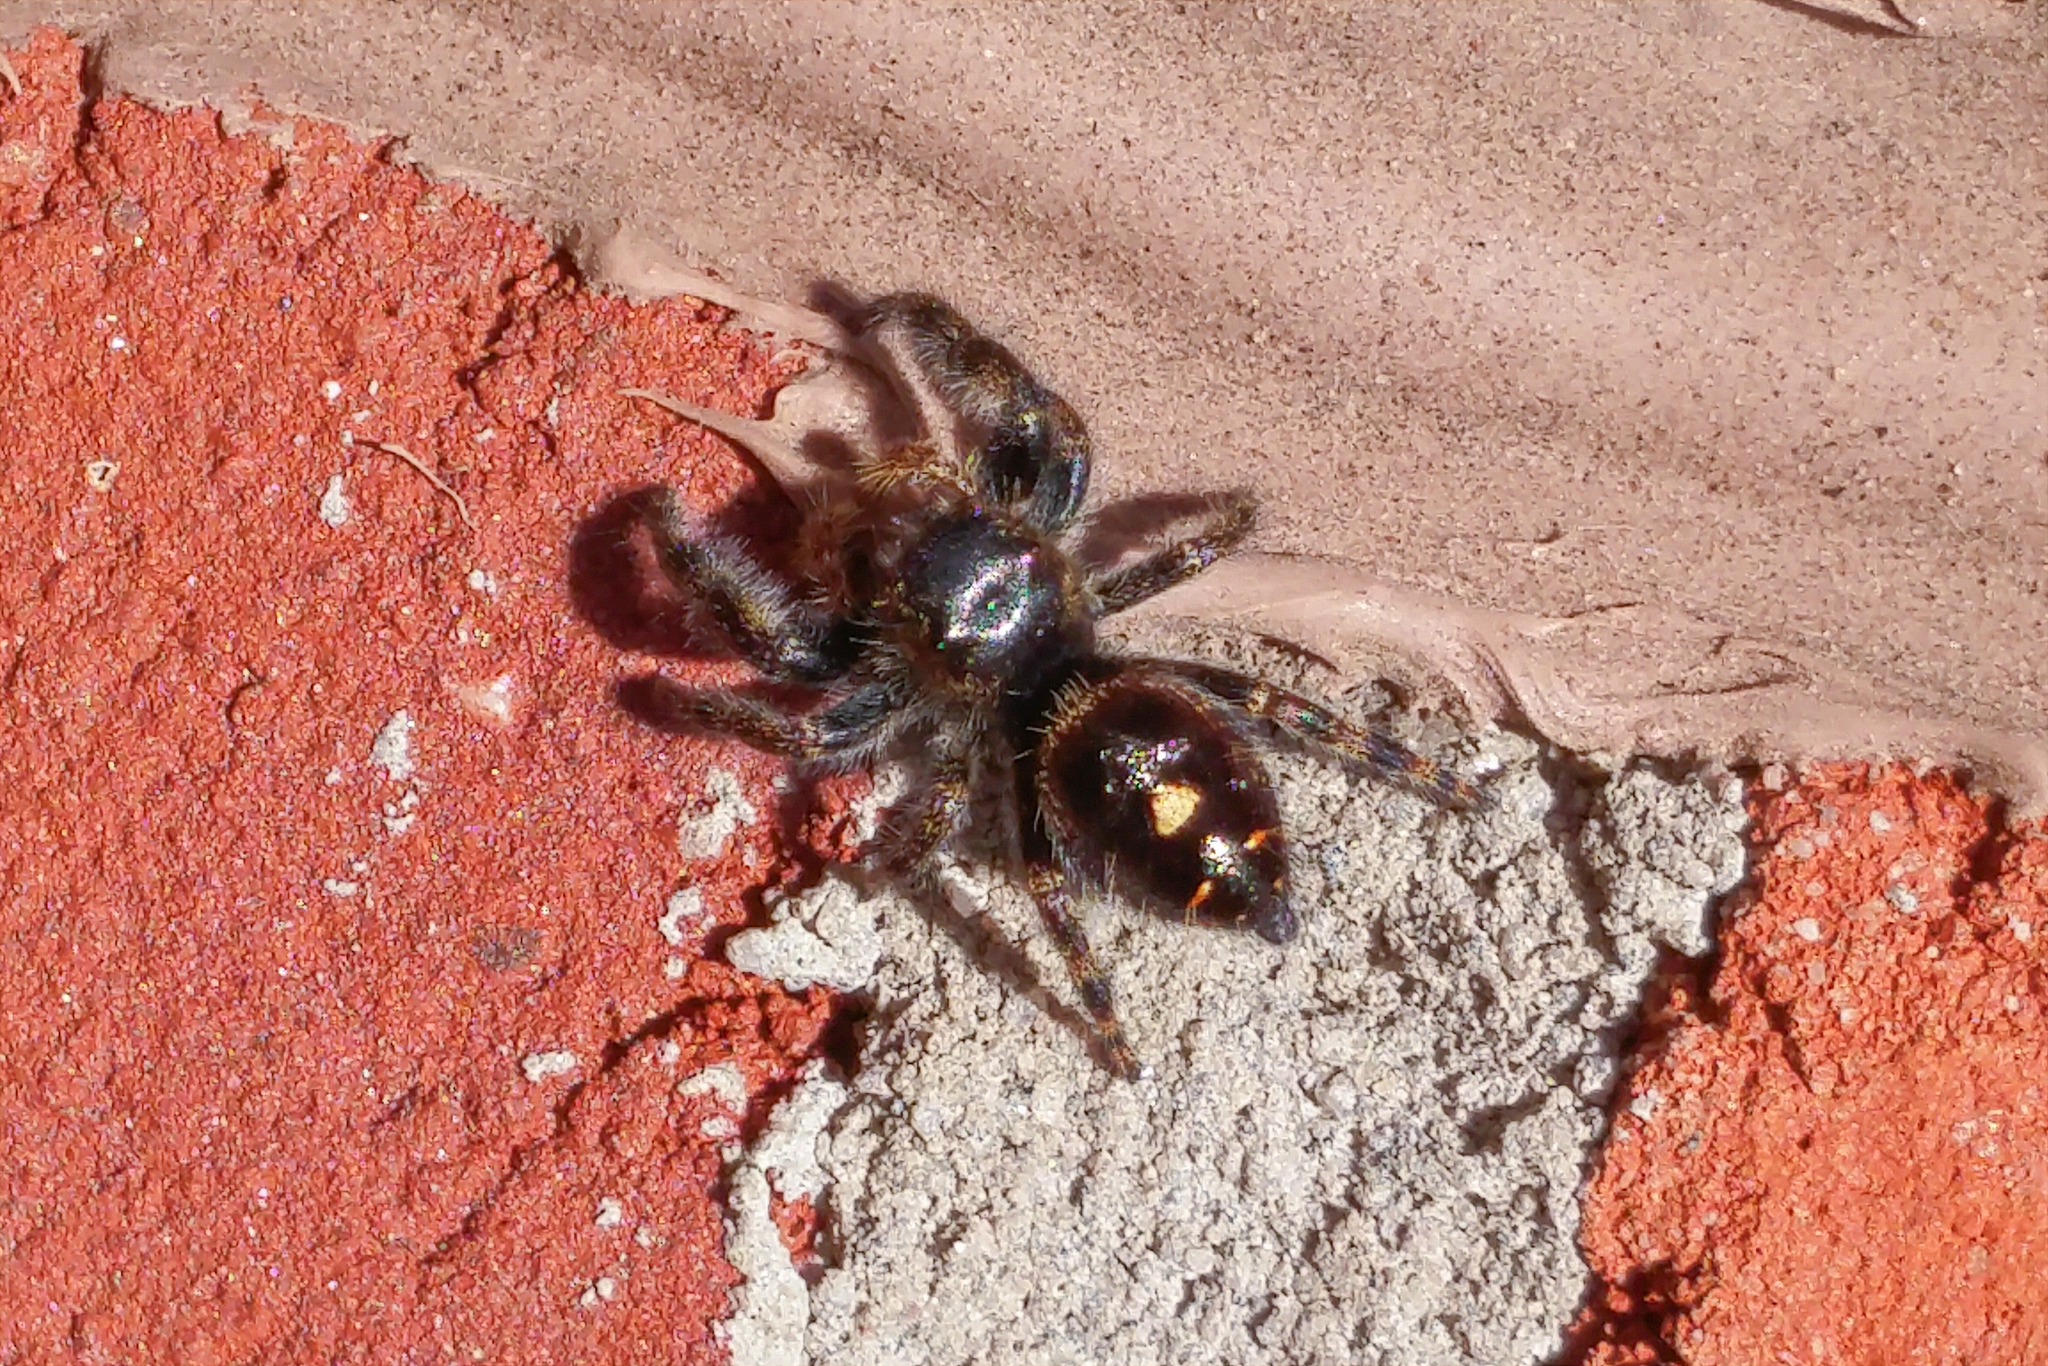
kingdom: Animalia
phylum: Arthropoda
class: Arachnida
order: Araneae
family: Salticidae
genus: Phidippus
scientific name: Phidippus audax
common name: Bold jumper
